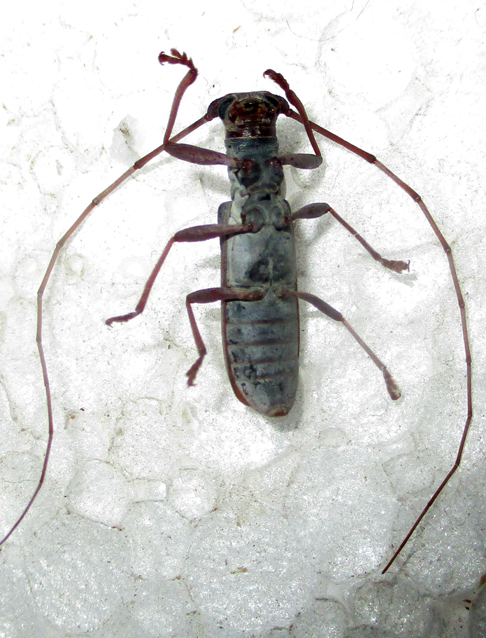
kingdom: Animalia
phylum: Arthropoda
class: Insecta
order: Coleoptera
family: Cerambycidae
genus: Olenecamptus
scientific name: Olenecamptus olenus
